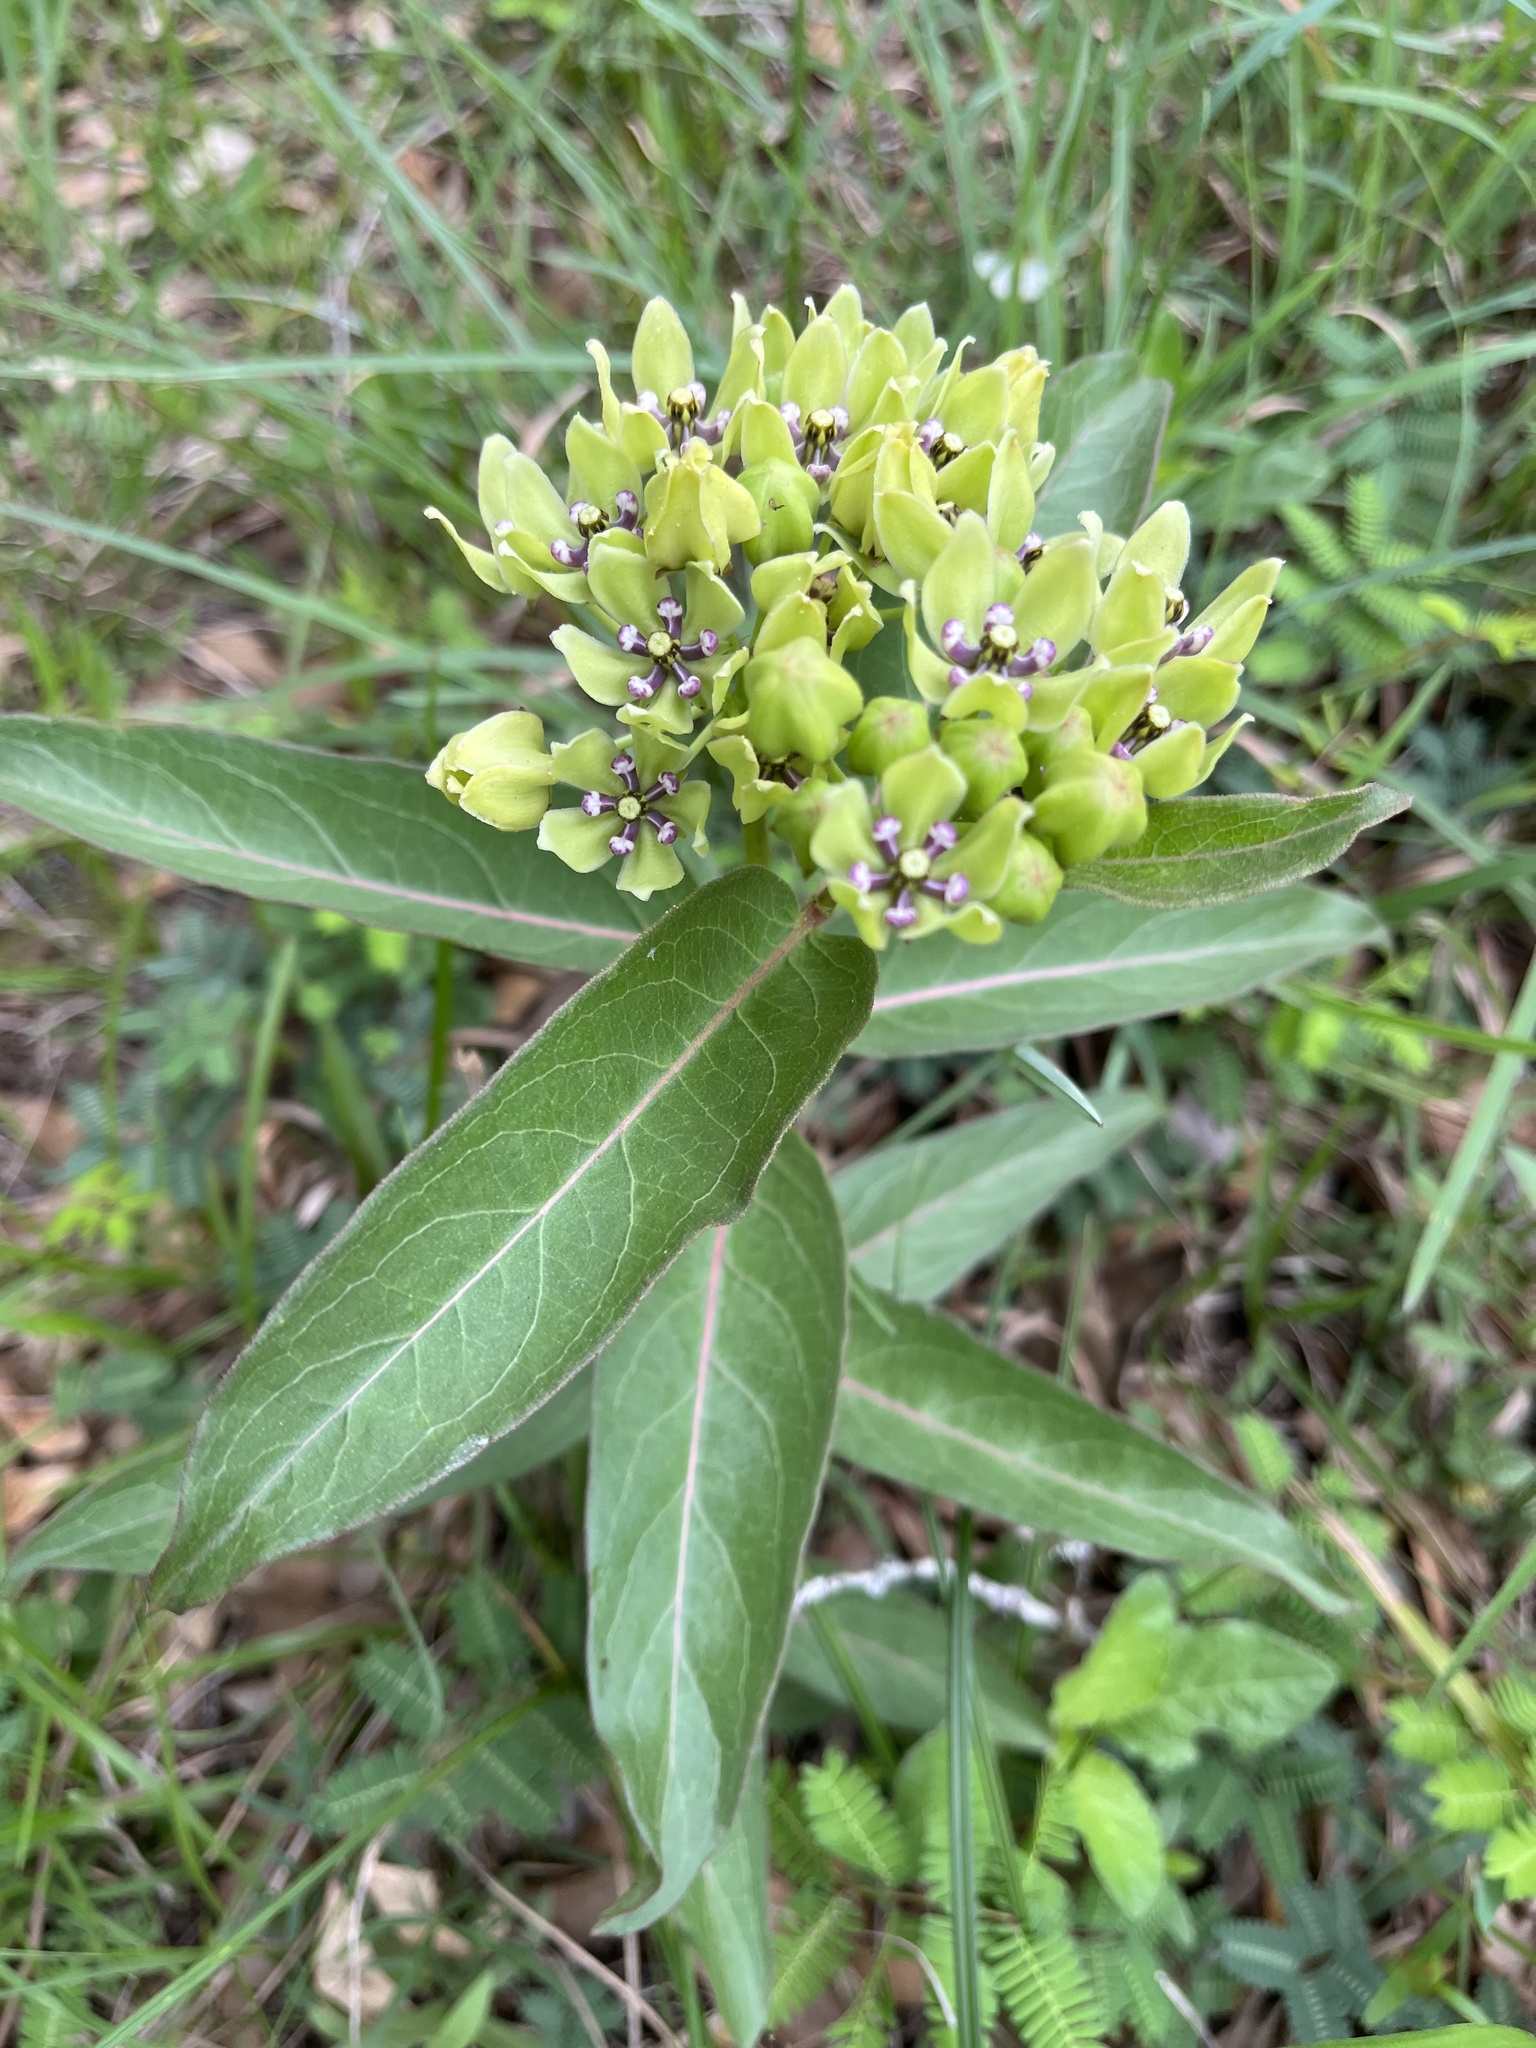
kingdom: Plantae
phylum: Tracheophyta
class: Magnoliopsida
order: Gentianales
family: Apocynaceae
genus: Asclepias
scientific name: Asclepias viridis
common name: Antelope-horns
